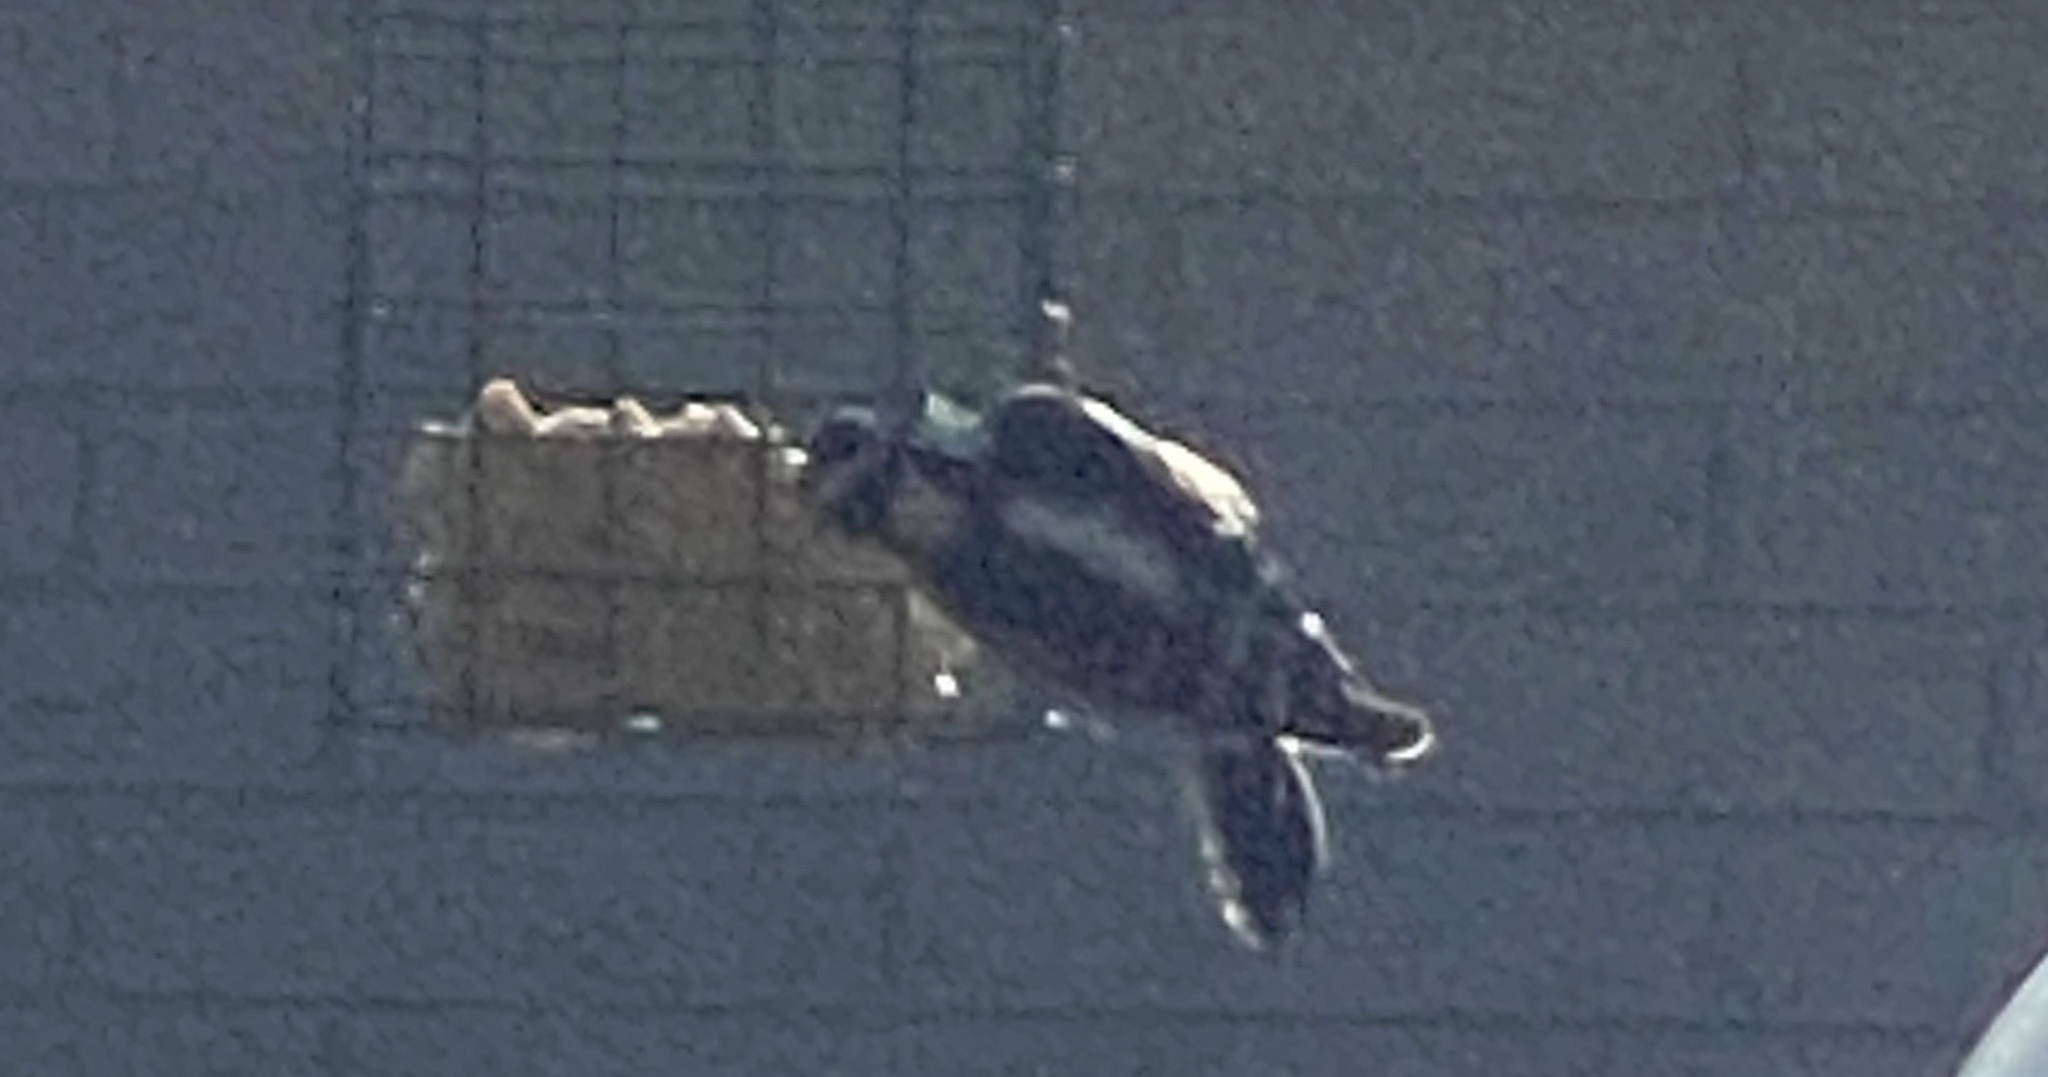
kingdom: Animalia
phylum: Chordata
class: Aves
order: Piciformes
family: Picidae
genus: Dryobates
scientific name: Dryobates pubescens
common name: Downy woodpecker
